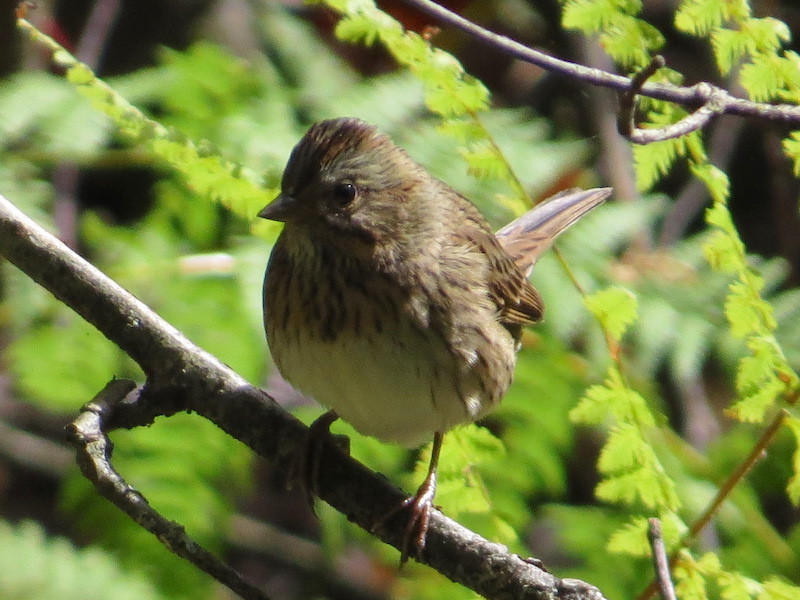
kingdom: Animalia
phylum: Chordata
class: Aves
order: Passeriformes
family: Passerellidae
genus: Melospiza
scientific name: Melospiza lincolnii
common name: Lincoln's sparrow
